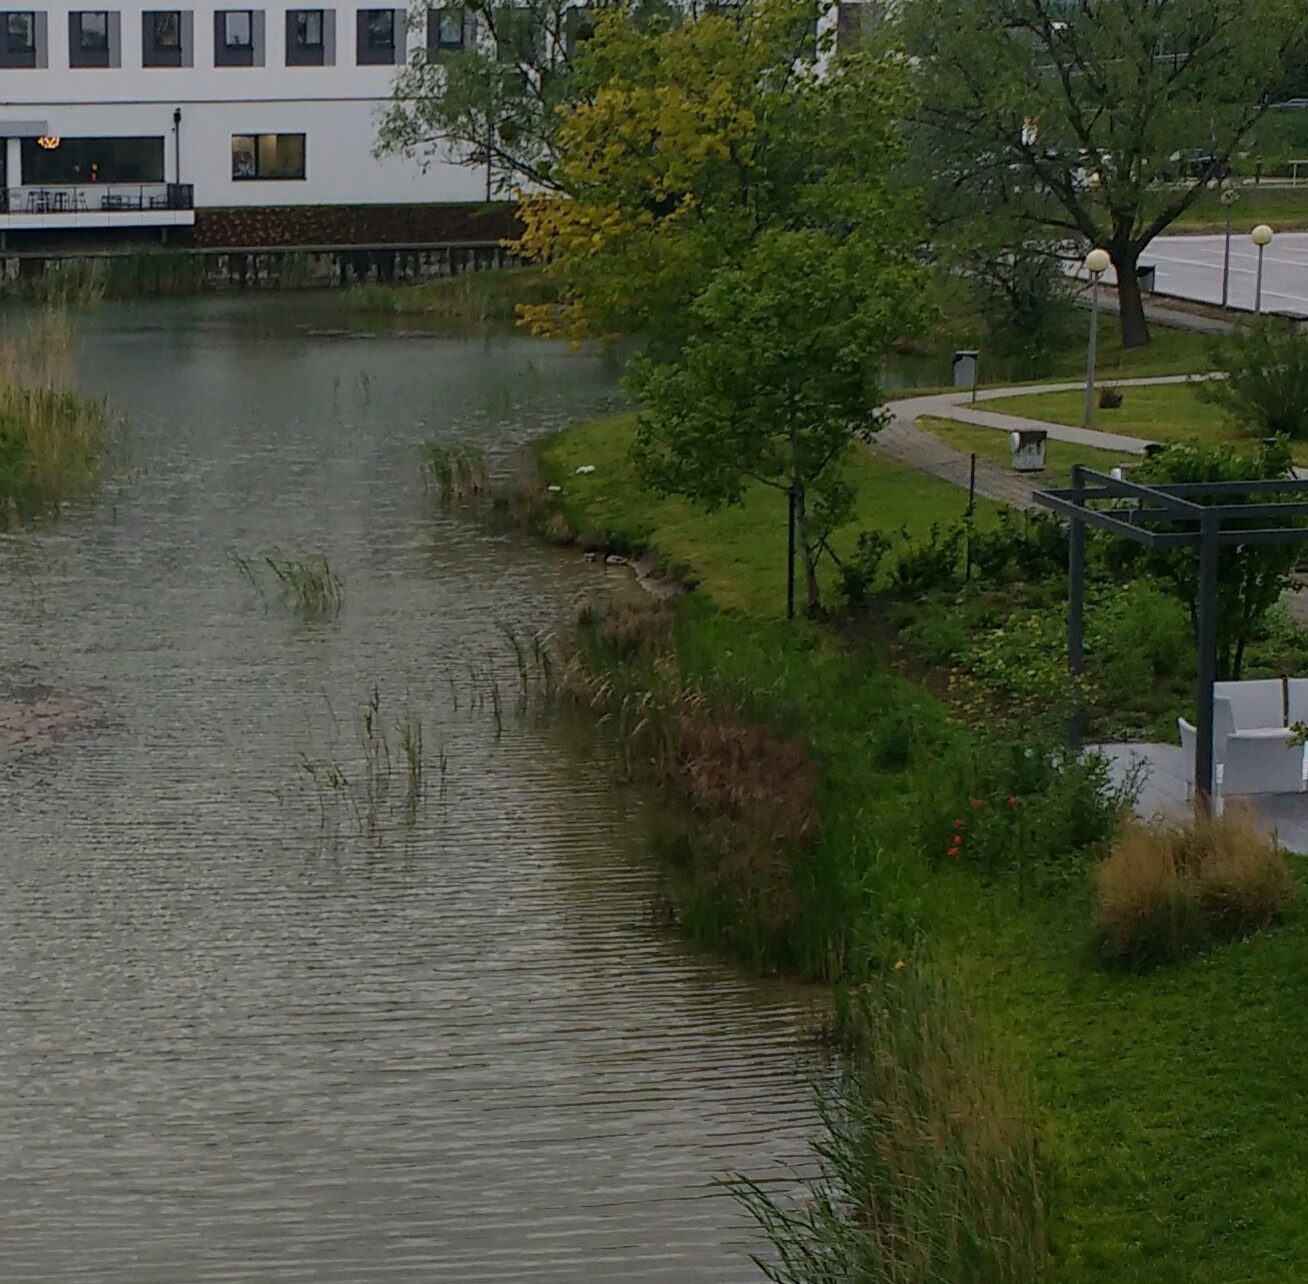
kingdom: Animalia
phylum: Chordata
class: Aves
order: Anseriformes
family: Anatidae
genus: Anas
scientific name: Anas platyrhynchos
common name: Mallard
